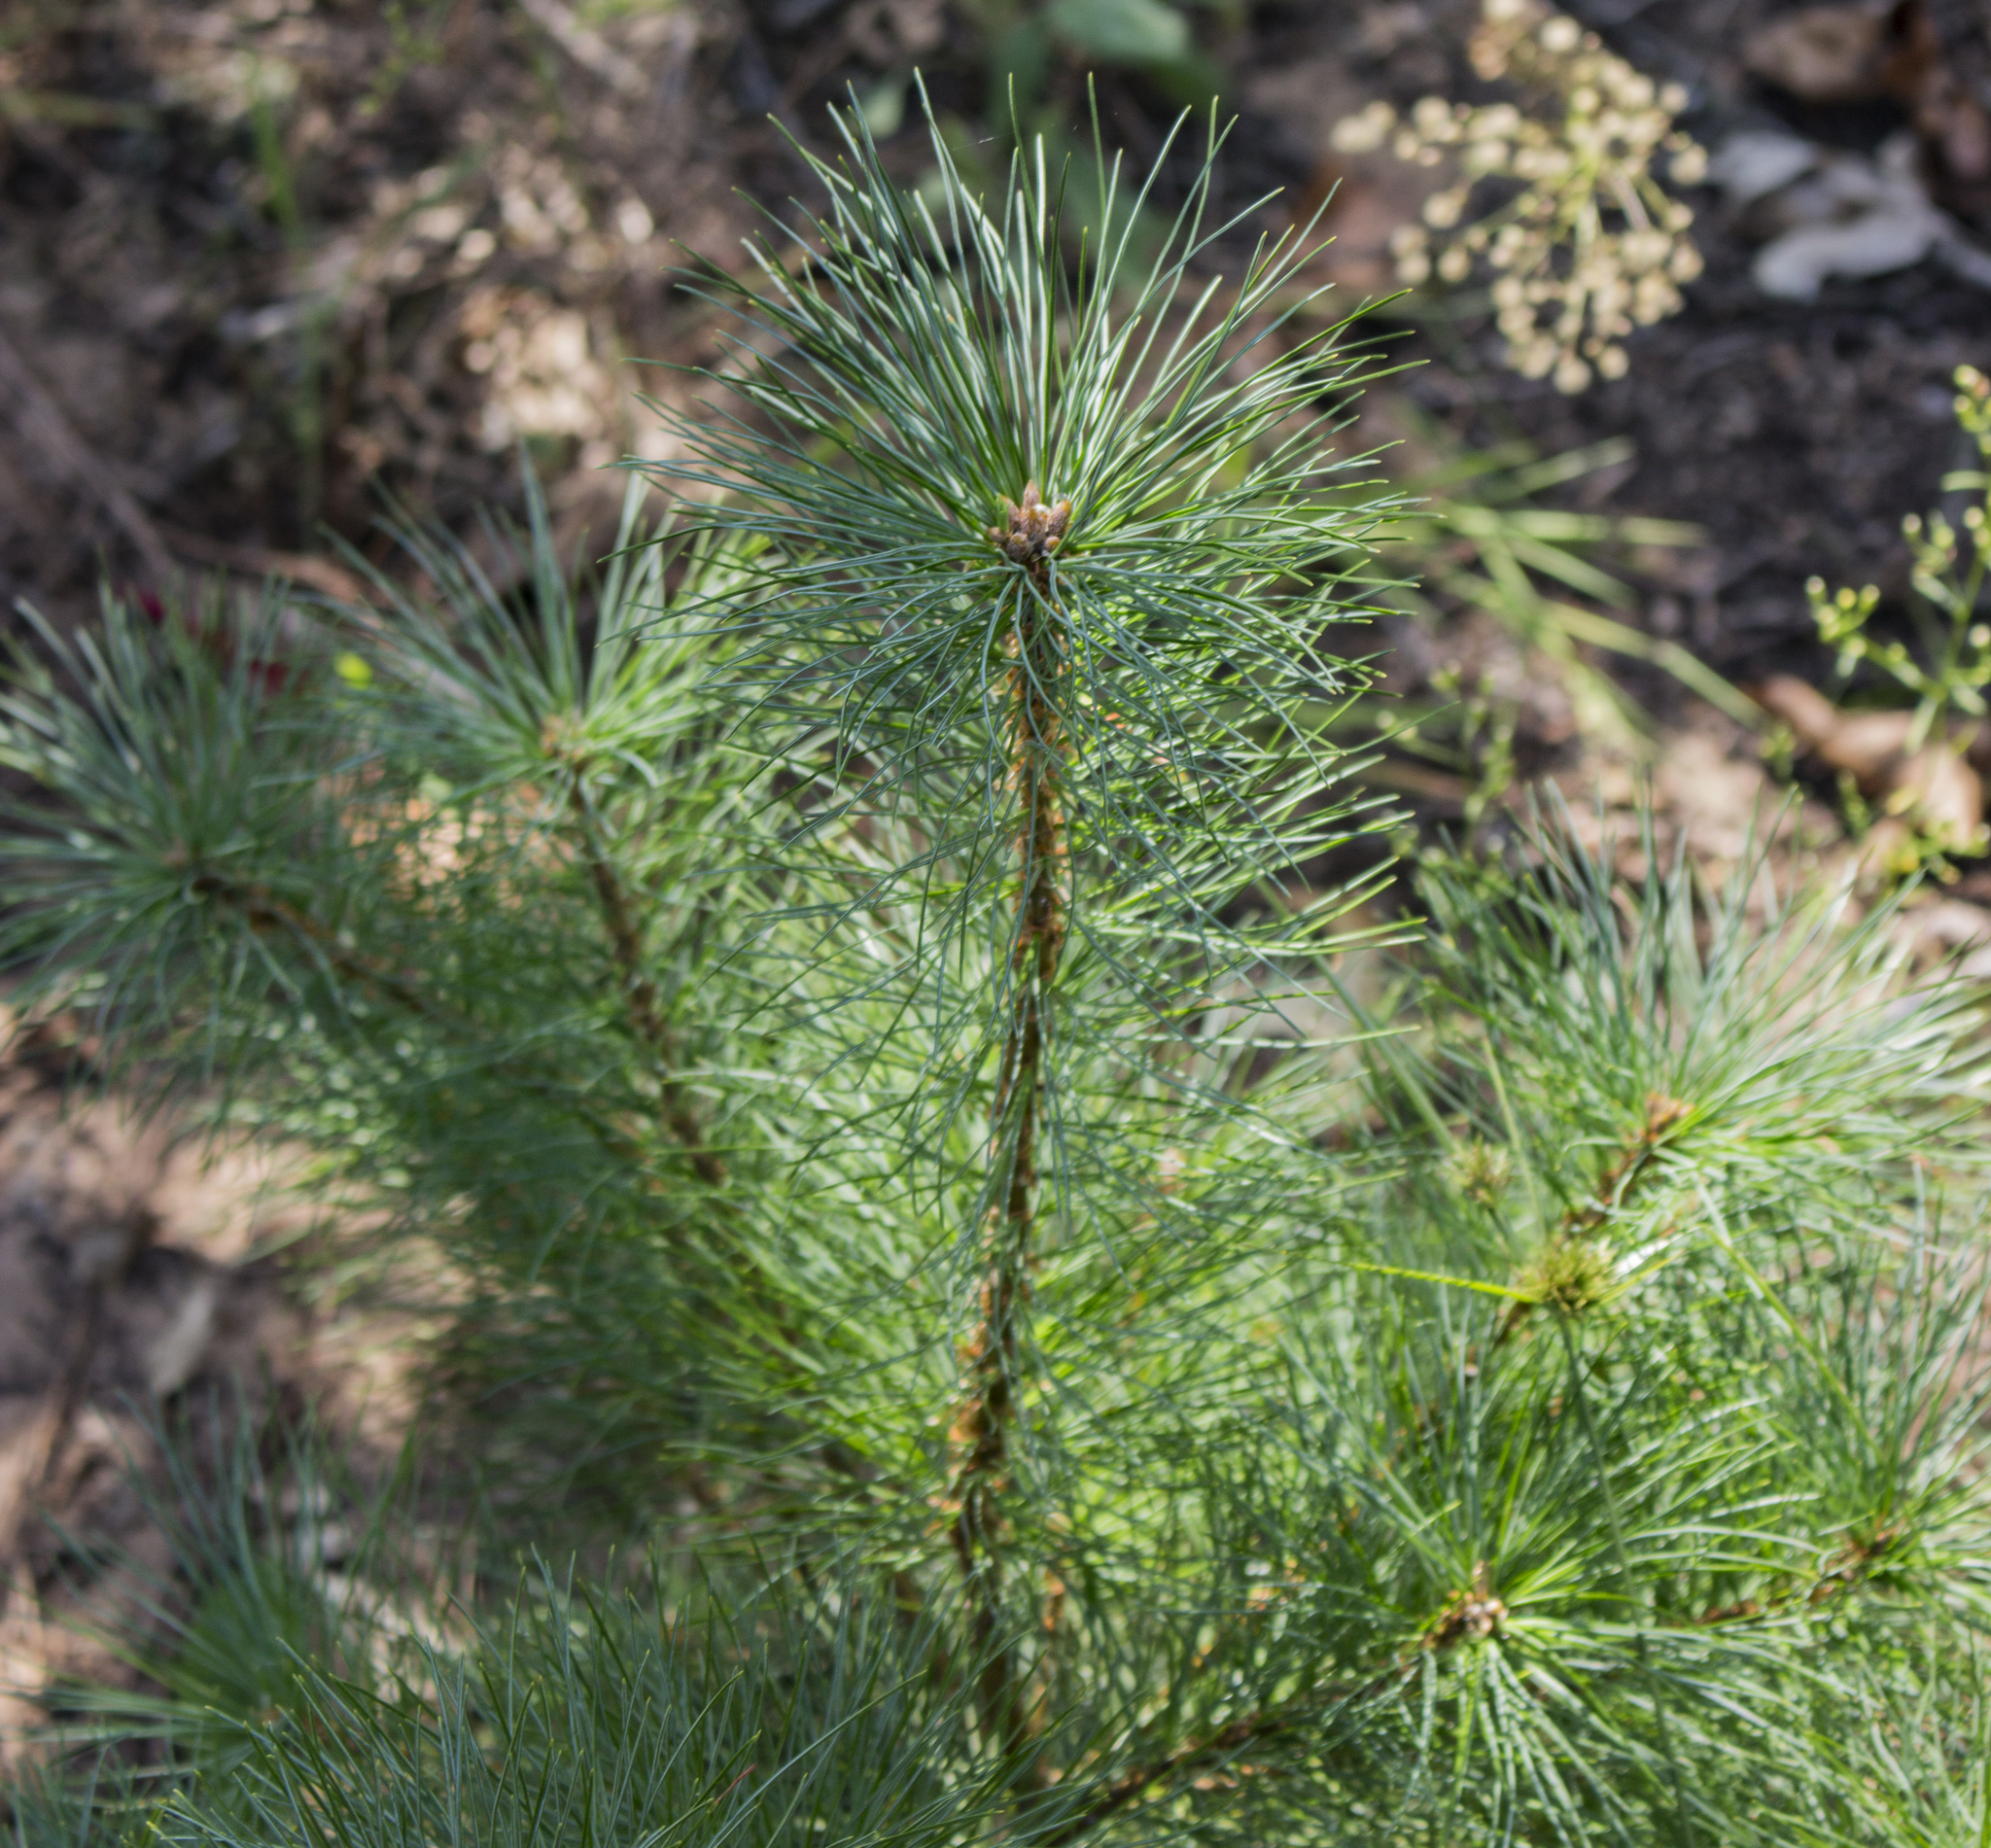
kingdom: Plantae
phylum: Tracheophyta
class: Pinopsida
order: Pinales
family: Pinaceae
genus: Pinus
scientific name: Pinus strobus
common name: Weymouth pine
